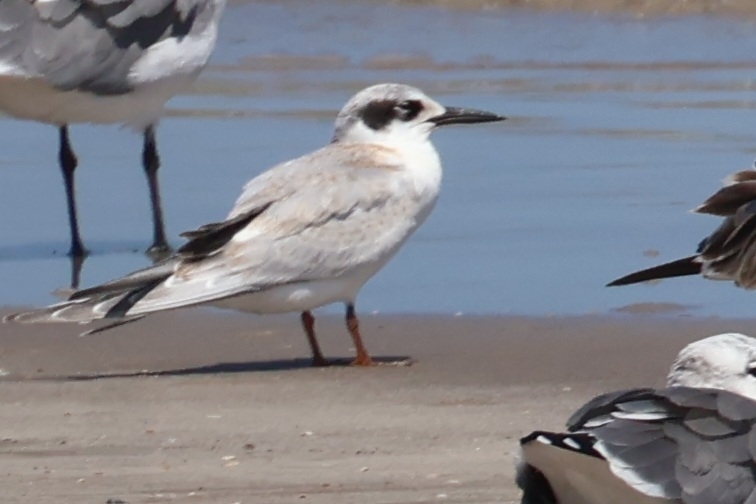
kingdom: Animalia
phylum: Chordata
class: Aves
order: Charadriiformes
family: Laridae
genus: Sterna
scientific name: Sterna forsteri
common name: Forster's tern
